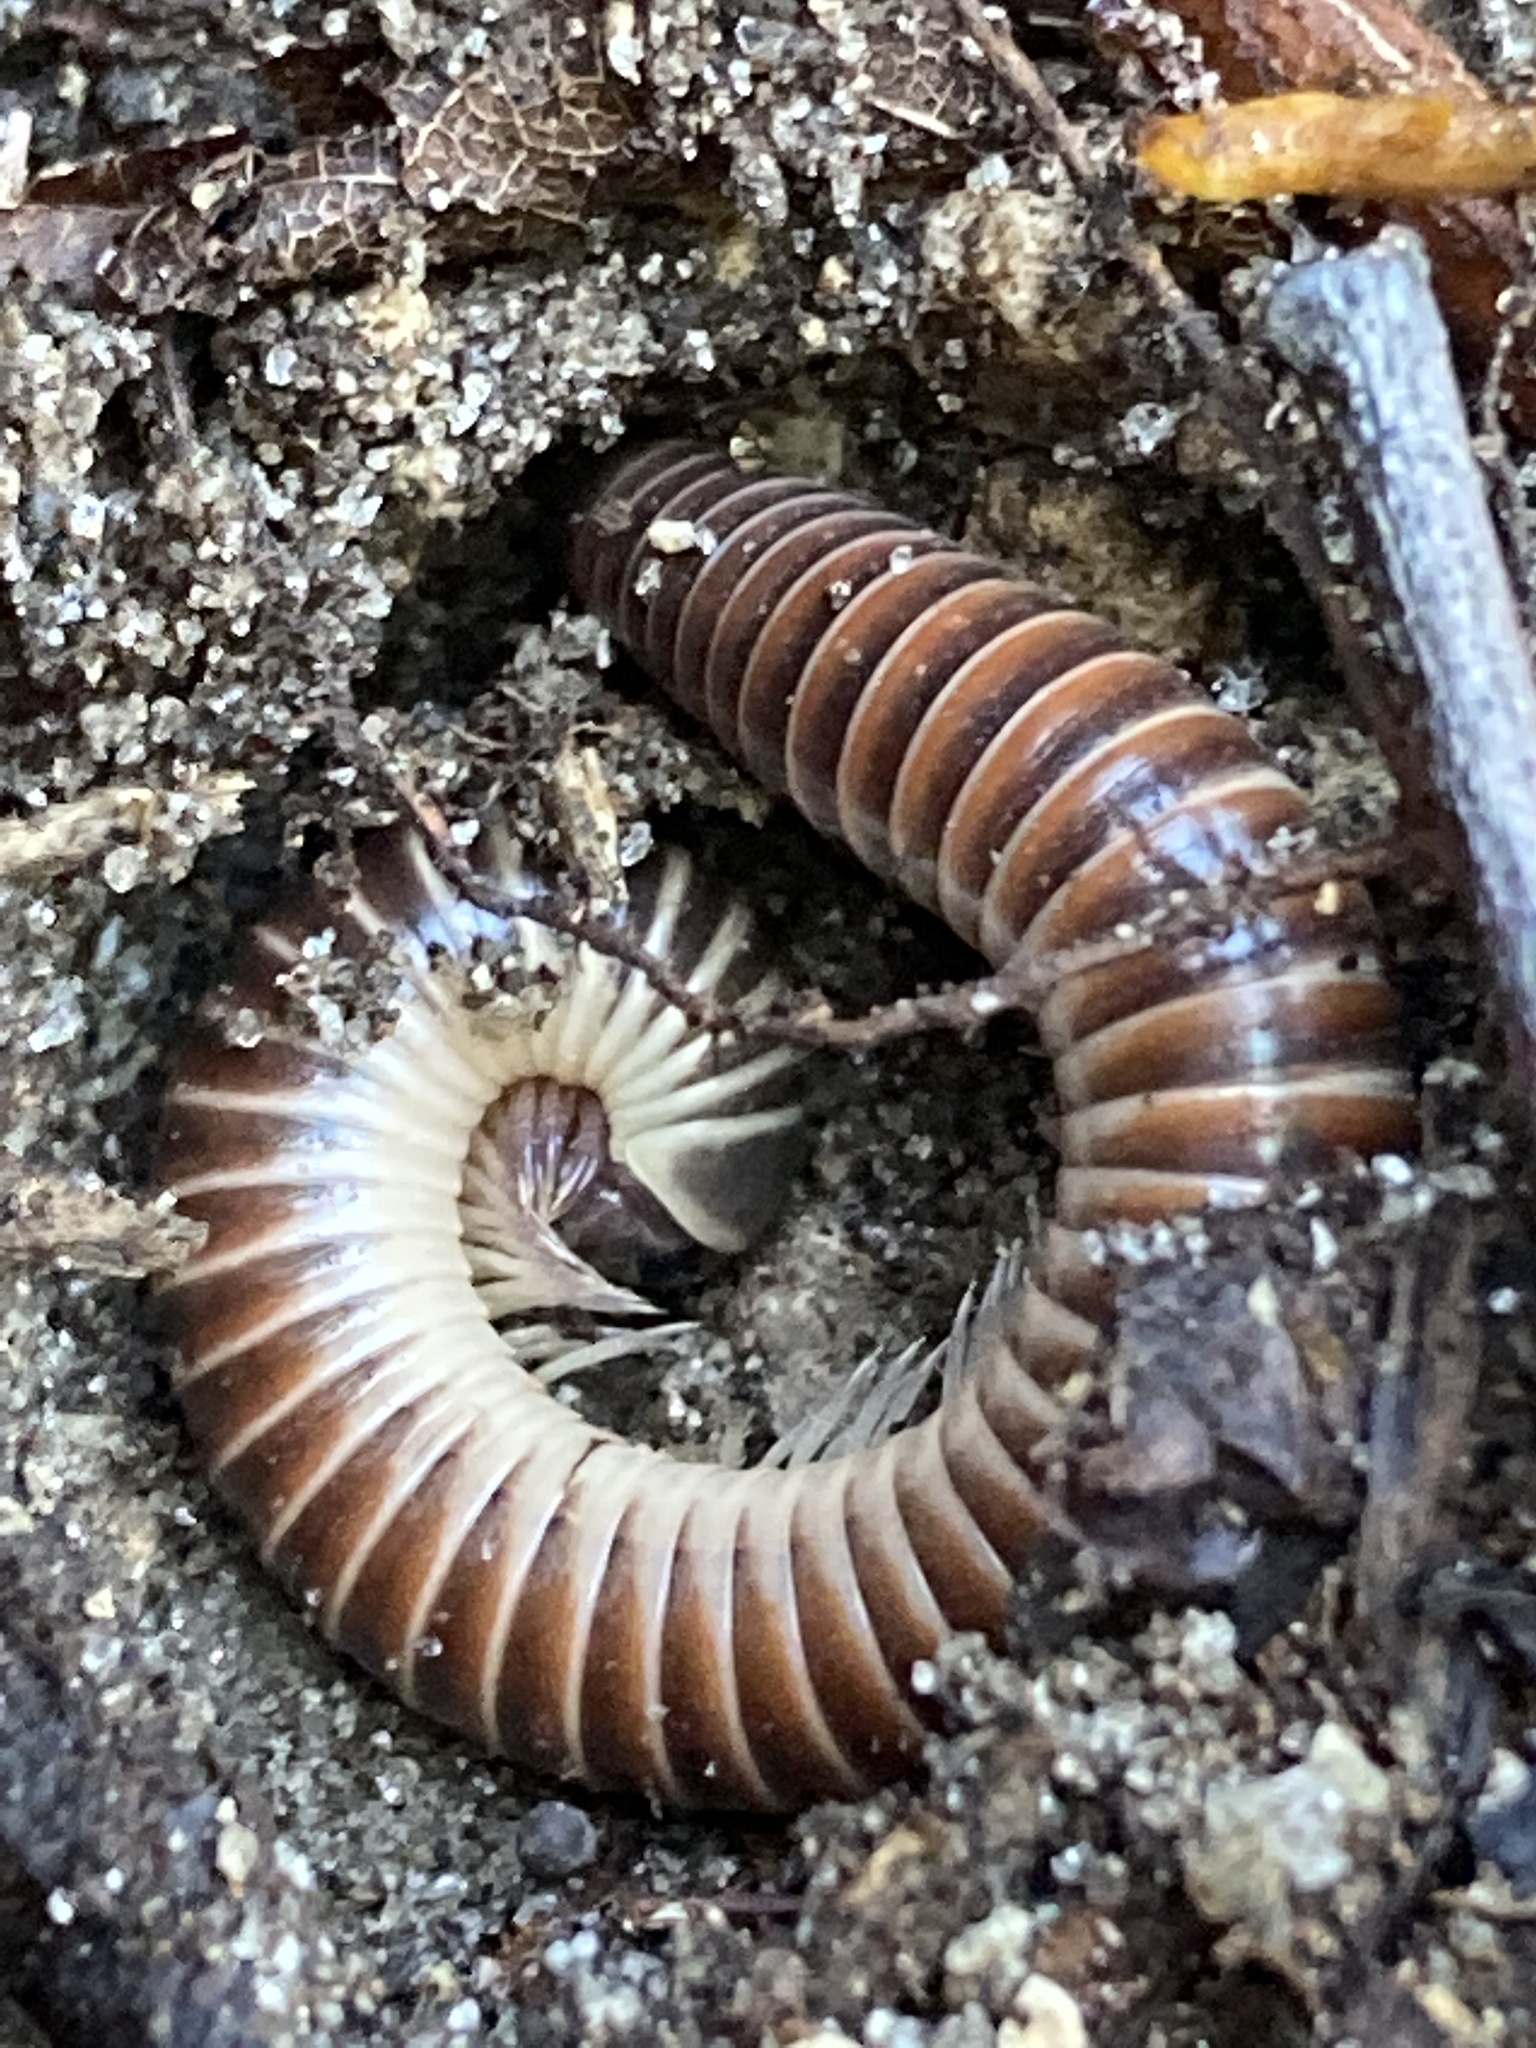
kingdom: Animalia
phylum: Arthropoda
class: Diplopoda
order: Spirobolida
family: Spirobolidae
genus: Chicobolus
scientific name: Chicobolus spinigerus
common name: Florida ivory millipede
